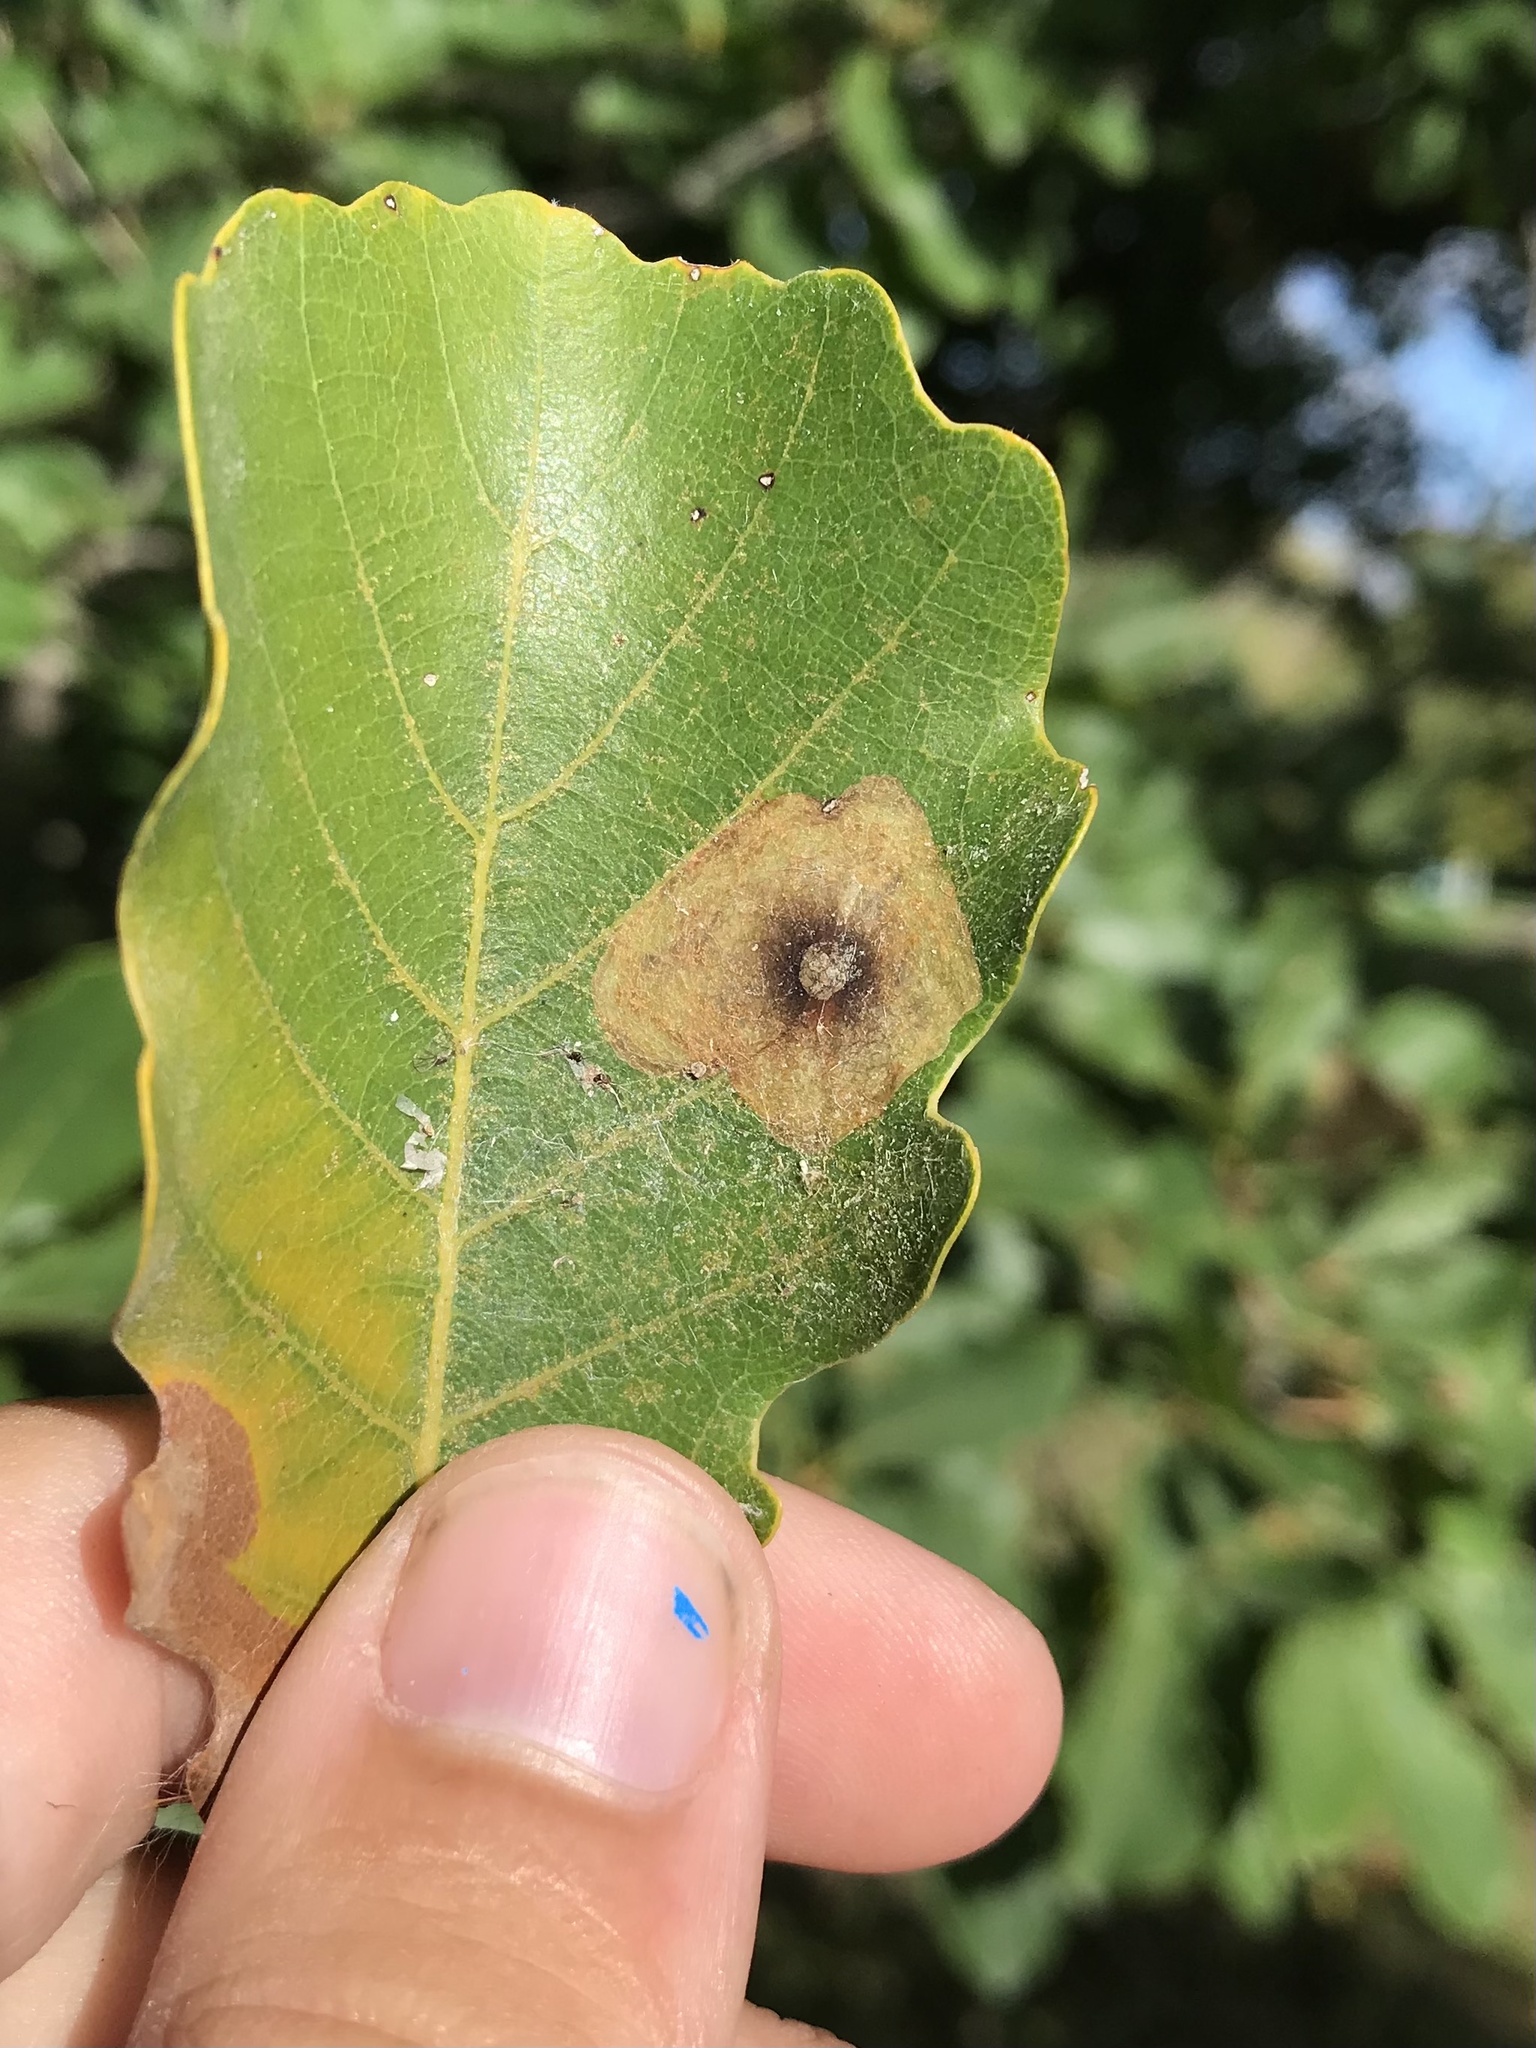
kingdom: Animalia
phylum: Arthropoda
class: Insecta
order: Lepidoptera
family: Gracillariidae
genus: Cameraria
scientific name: Cameraria bethunella
